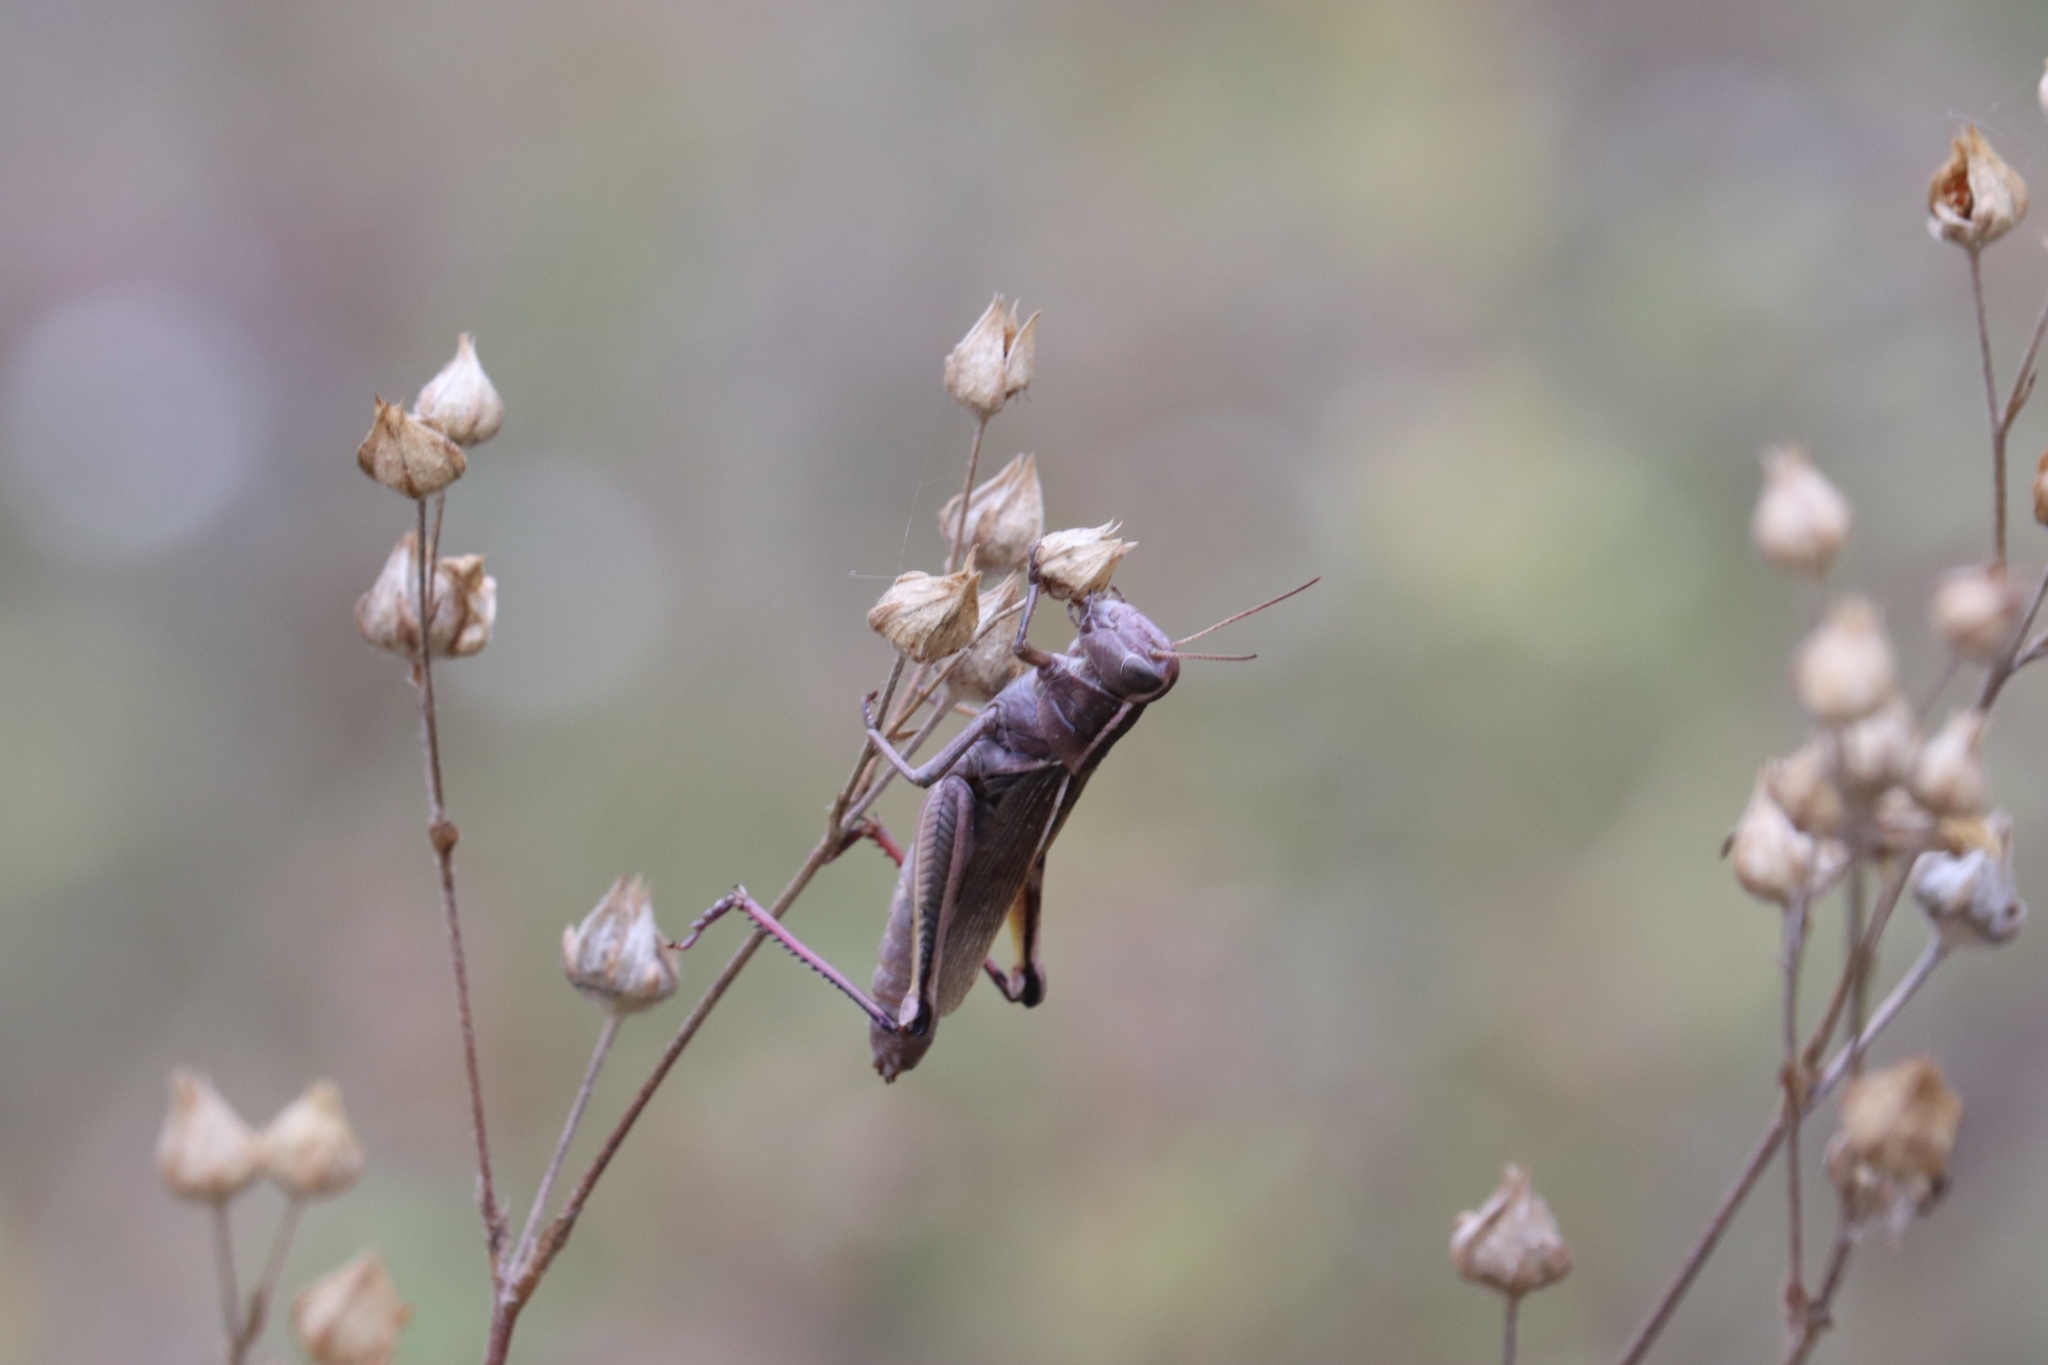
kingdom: Animalia
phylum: Arthropoda
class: Insecta
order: Orthoptera
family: Acrididae
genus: Melanoplus
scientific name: Melanoplus bivittatus
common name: Two-striped grasshopper
